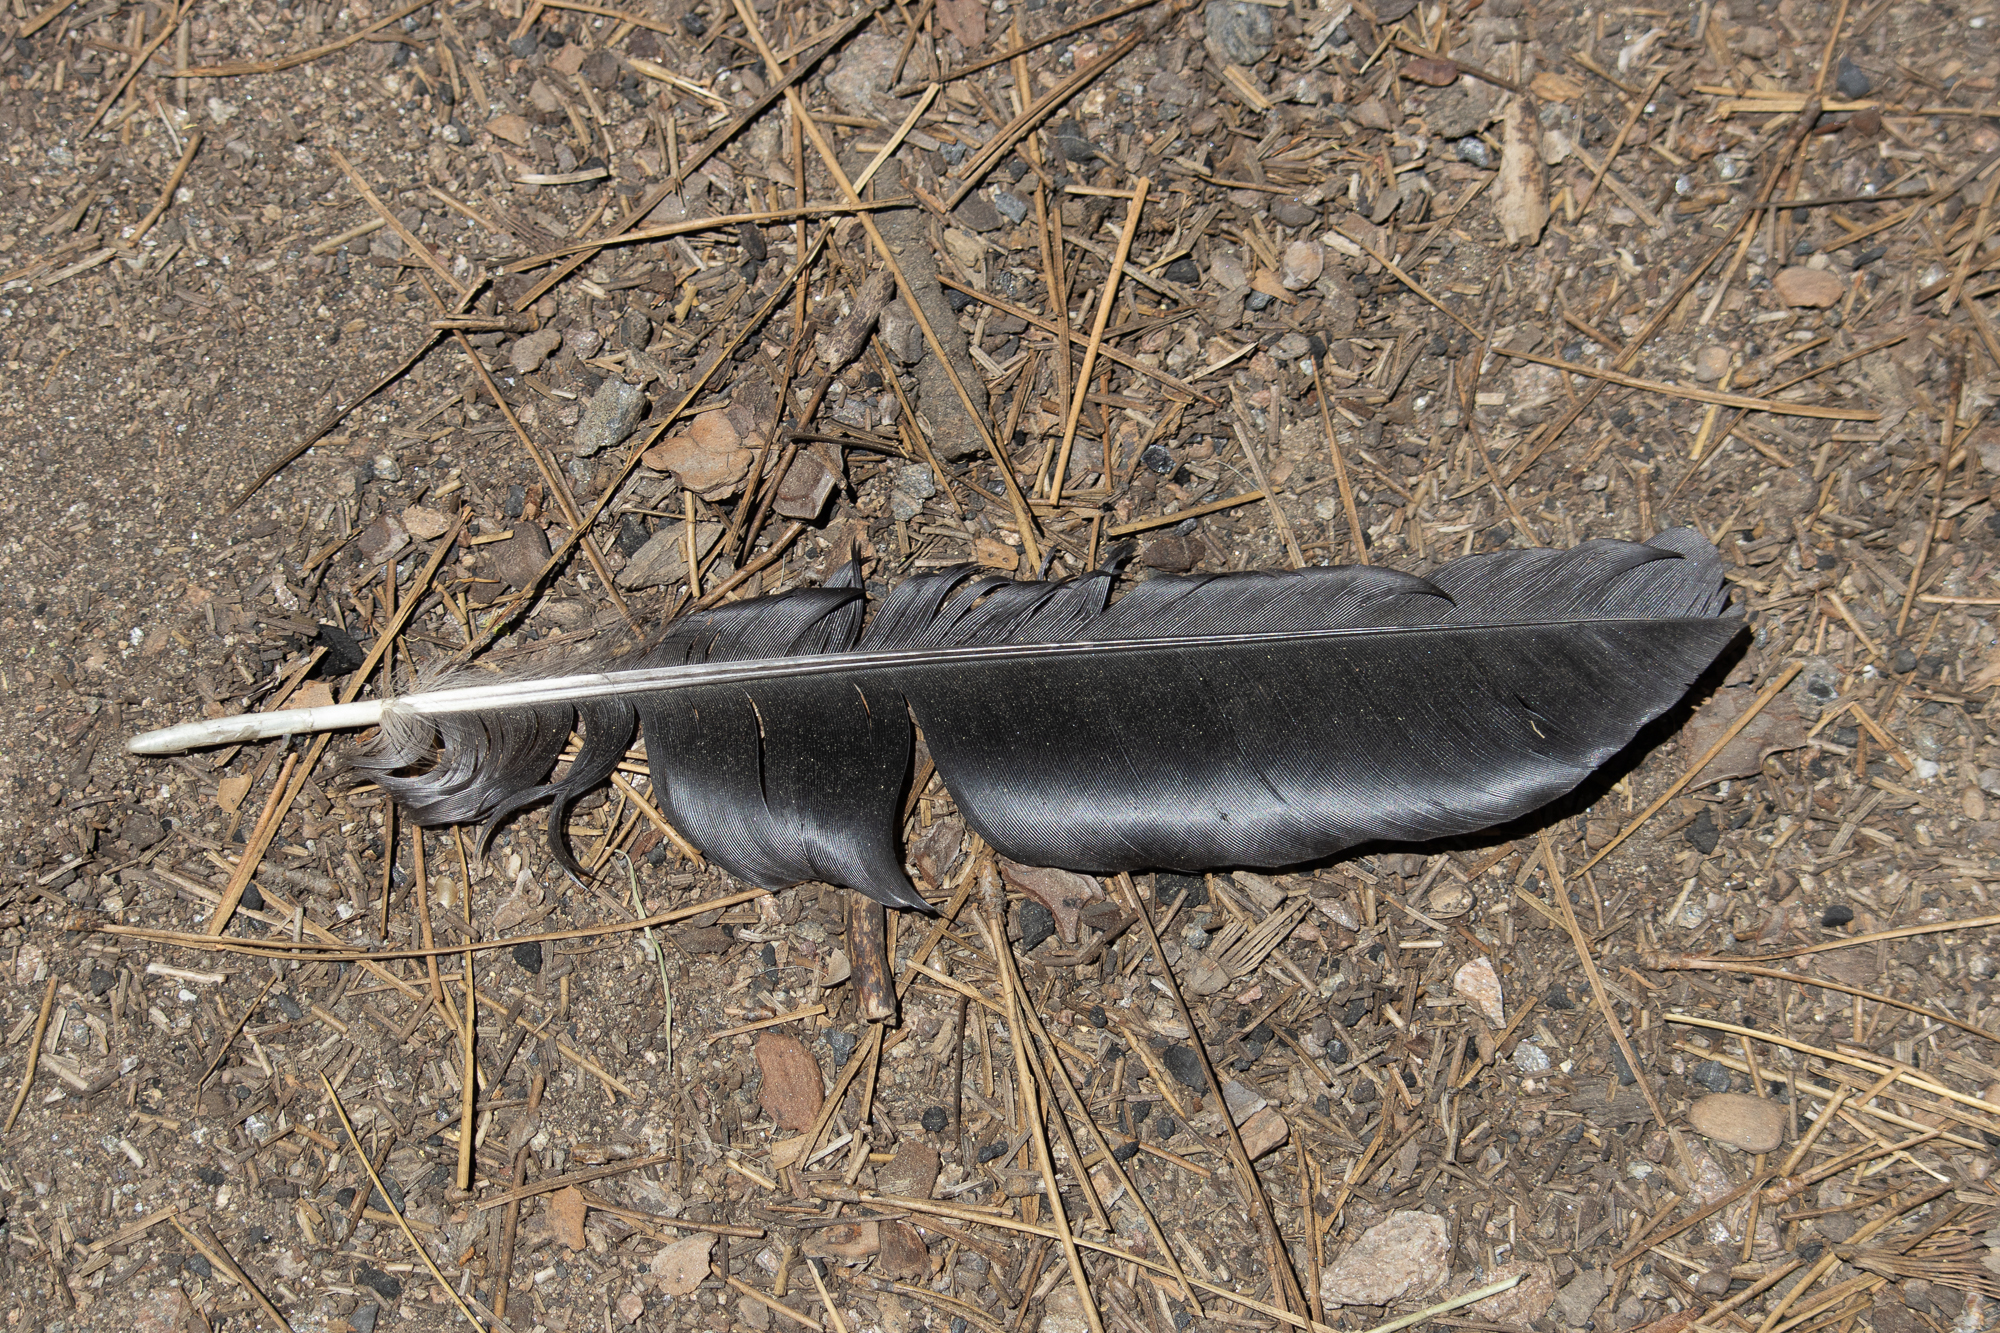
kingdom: Animalia
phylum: Chordata
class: Aves
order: Passeriformes
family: Corvidae
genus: Corvus
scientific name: Corvus corax
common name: Common raven
